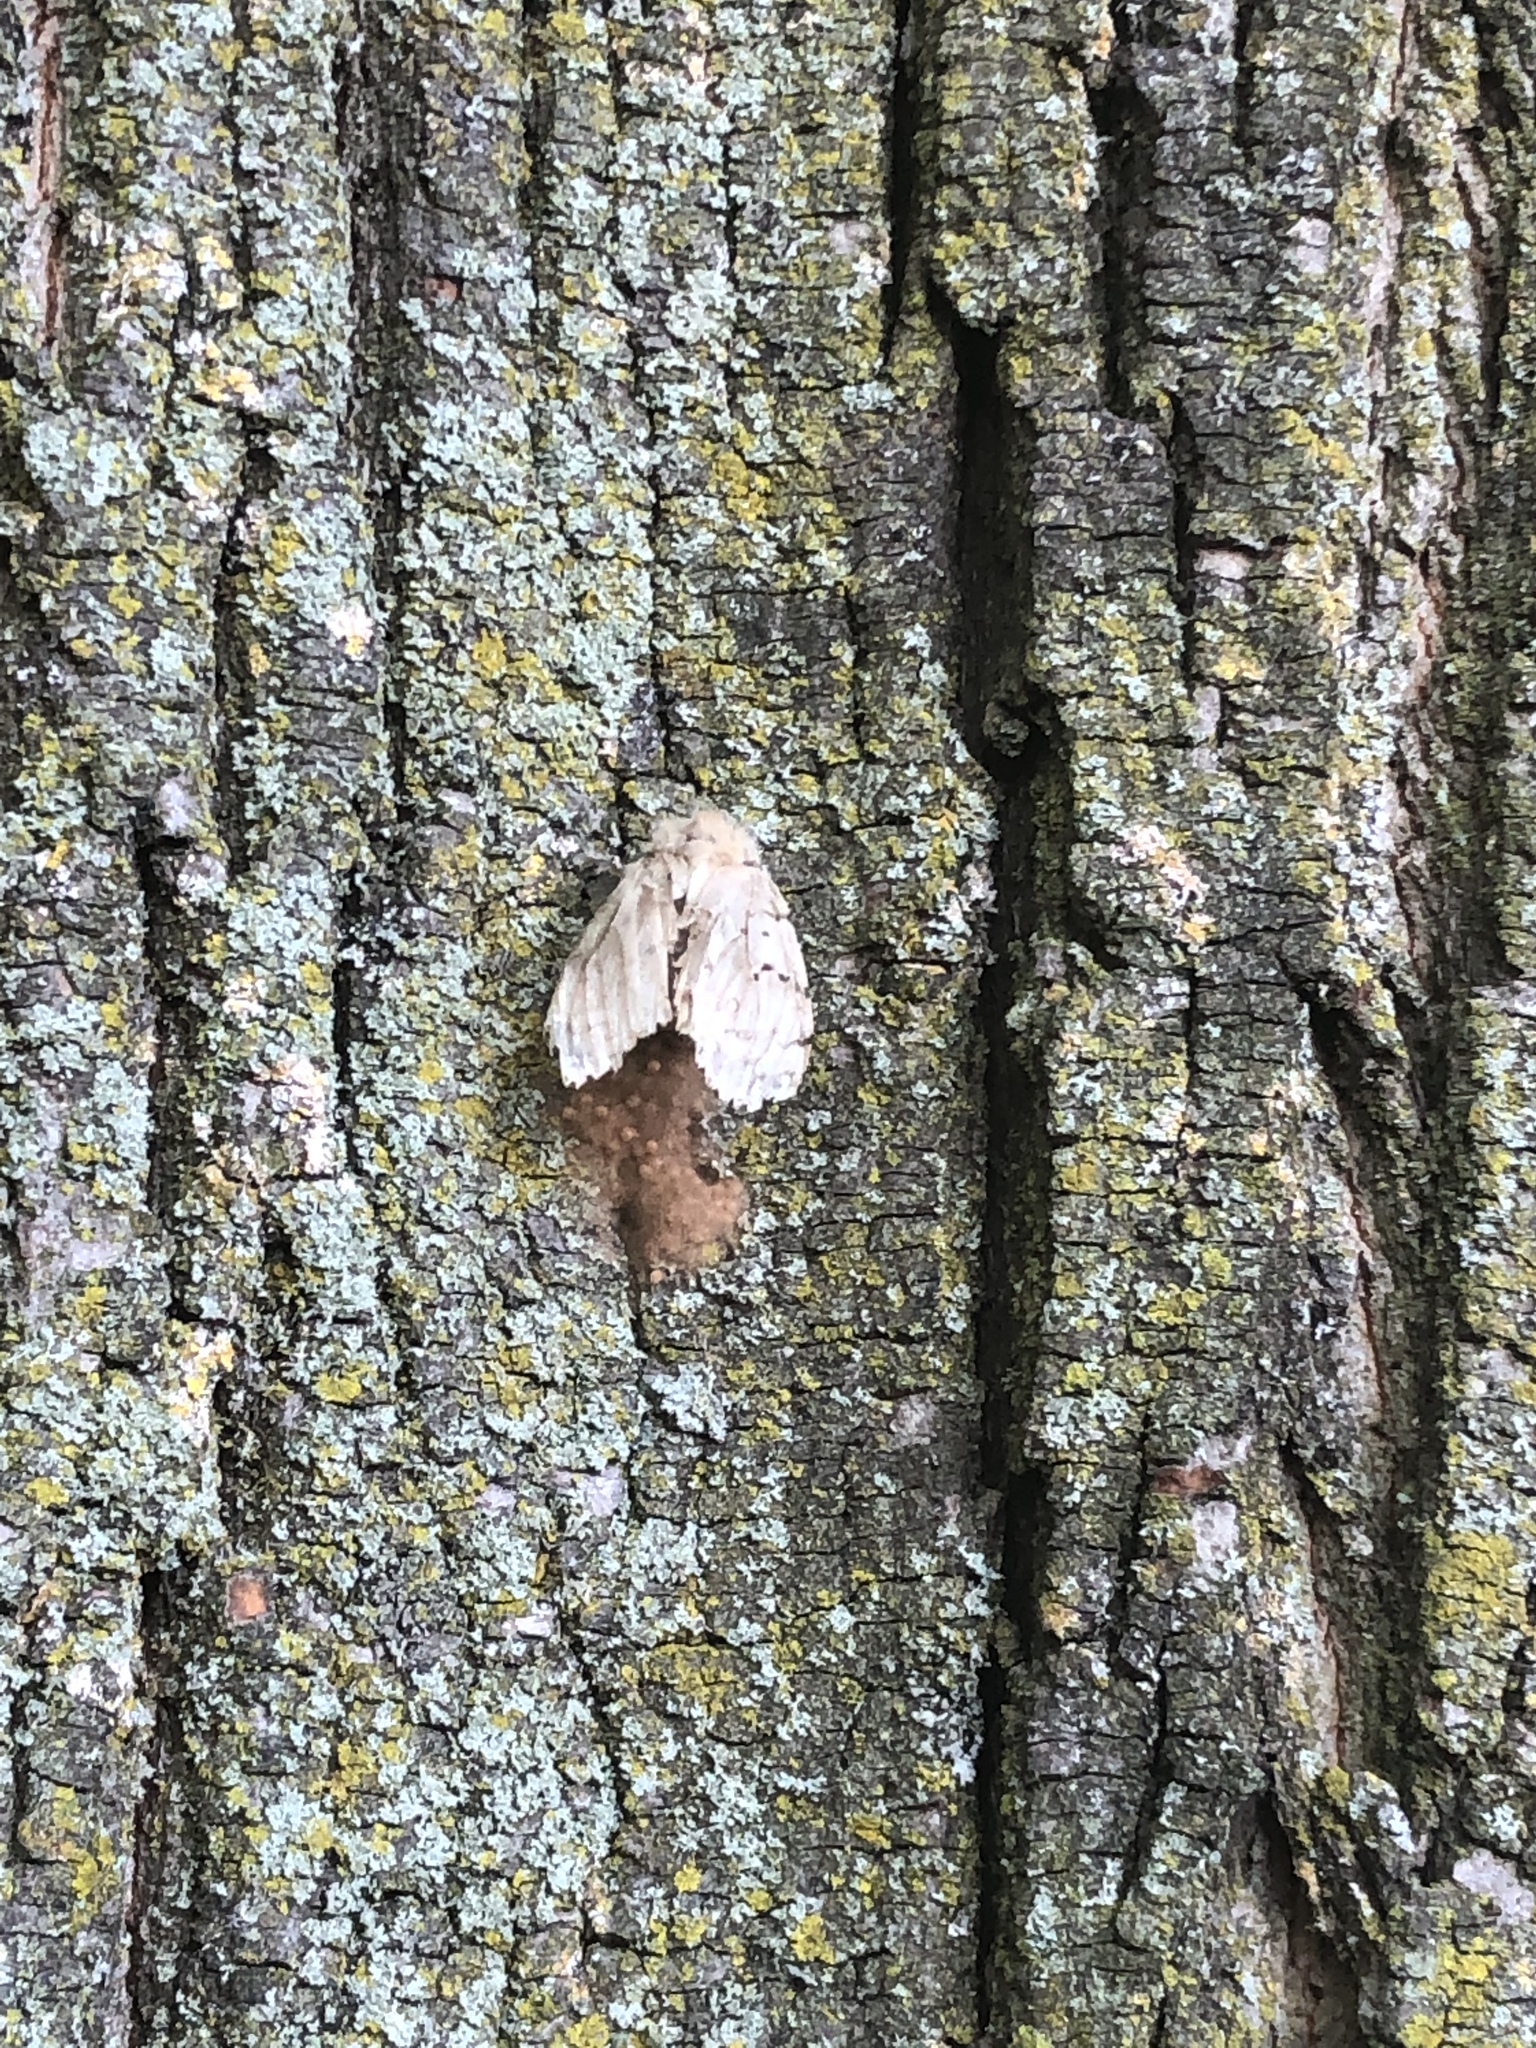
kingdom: Animalia
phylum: Arthropoda
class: Insecta
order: Lepidoptera
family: Erebidae
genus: Lymantria
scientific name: Lymantria dispar
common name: Gypsy moth
